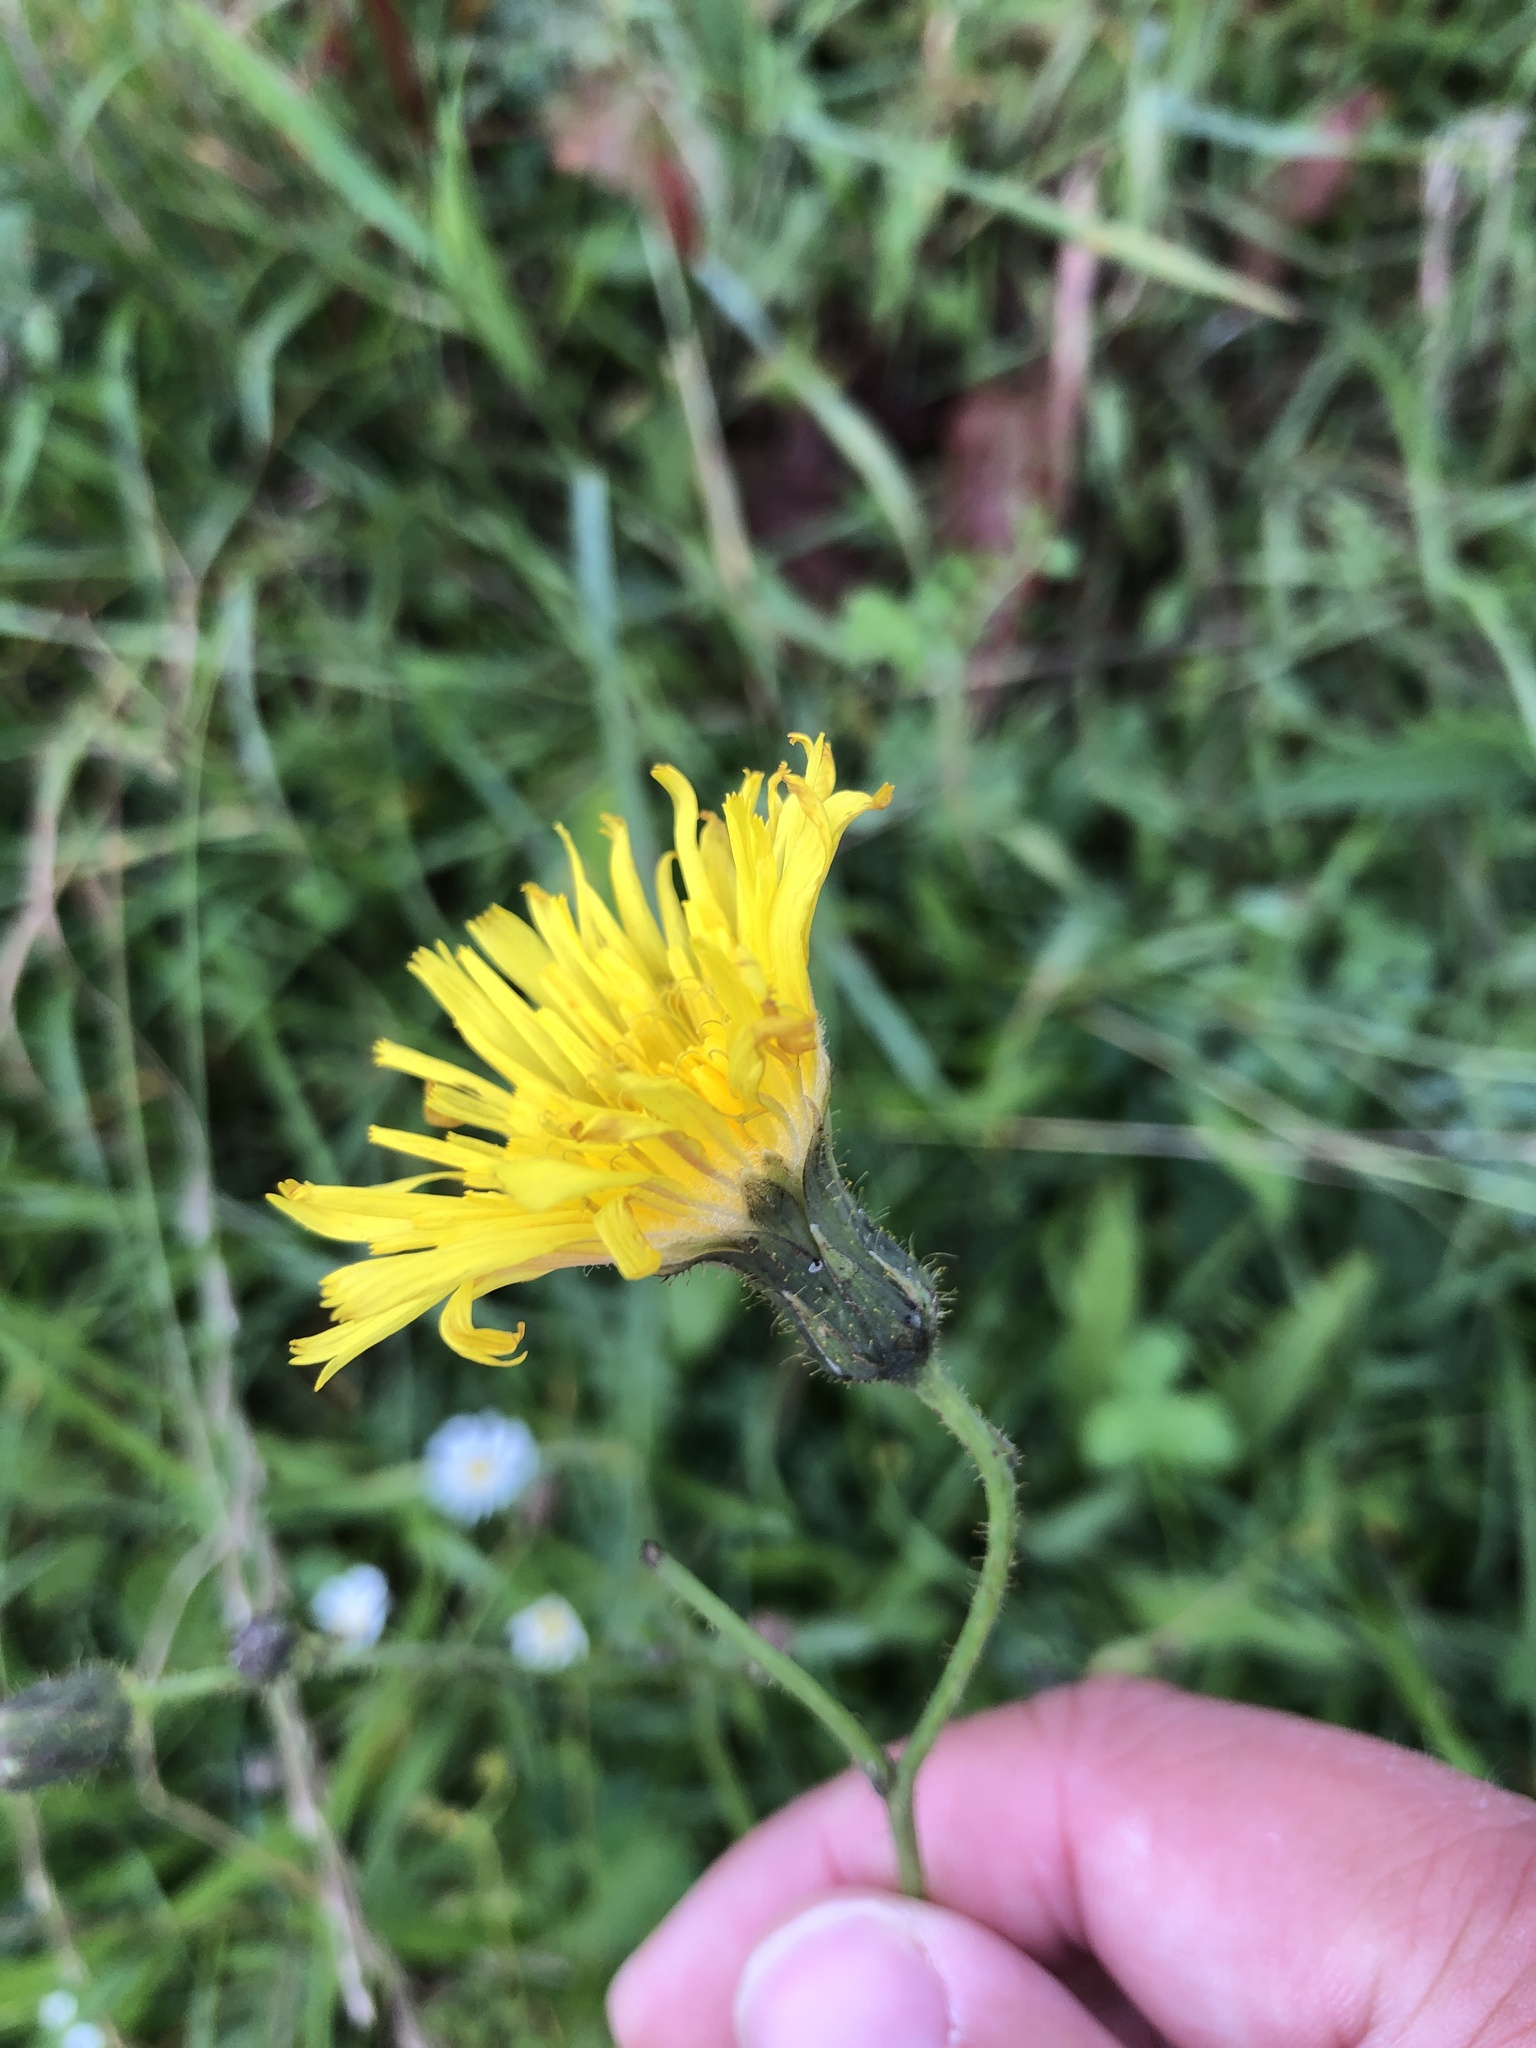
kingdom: Plantae
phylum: Tracheophyta
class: Magnoliopsida
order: Asterales
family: Asteraceae
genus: Sonchus
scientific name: Sonchus arvensis
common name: Perennial sow-thistle
